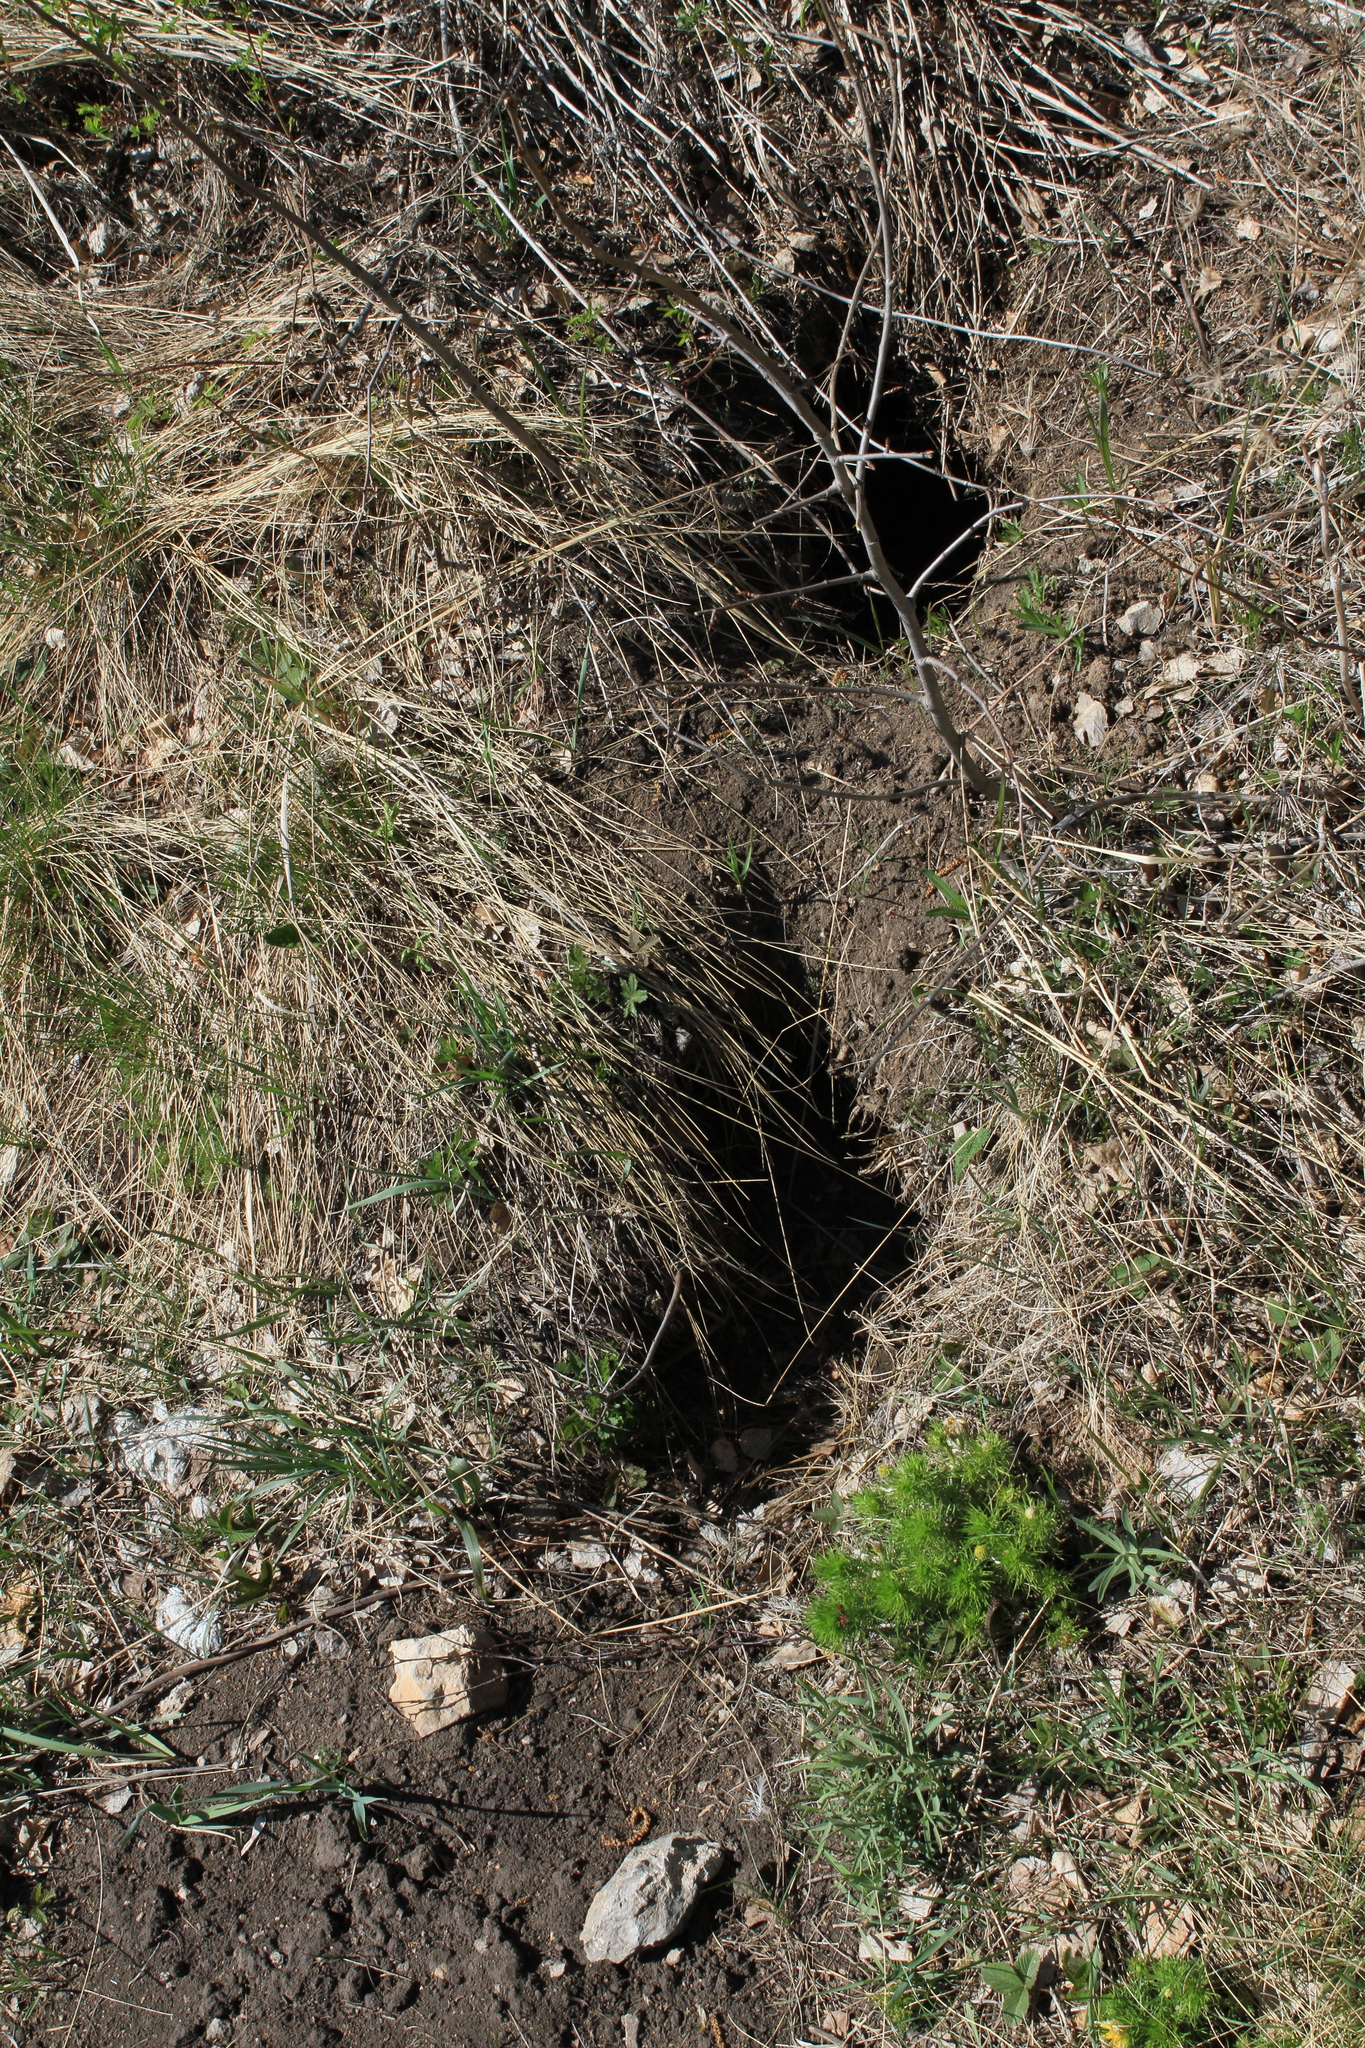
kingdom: Animalia
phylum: Chordata
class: Mammalia
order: Rodentia
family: Sciuridae
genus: Marmota
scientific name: Marmota kastschenkoi
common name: Forest steppe marmot
